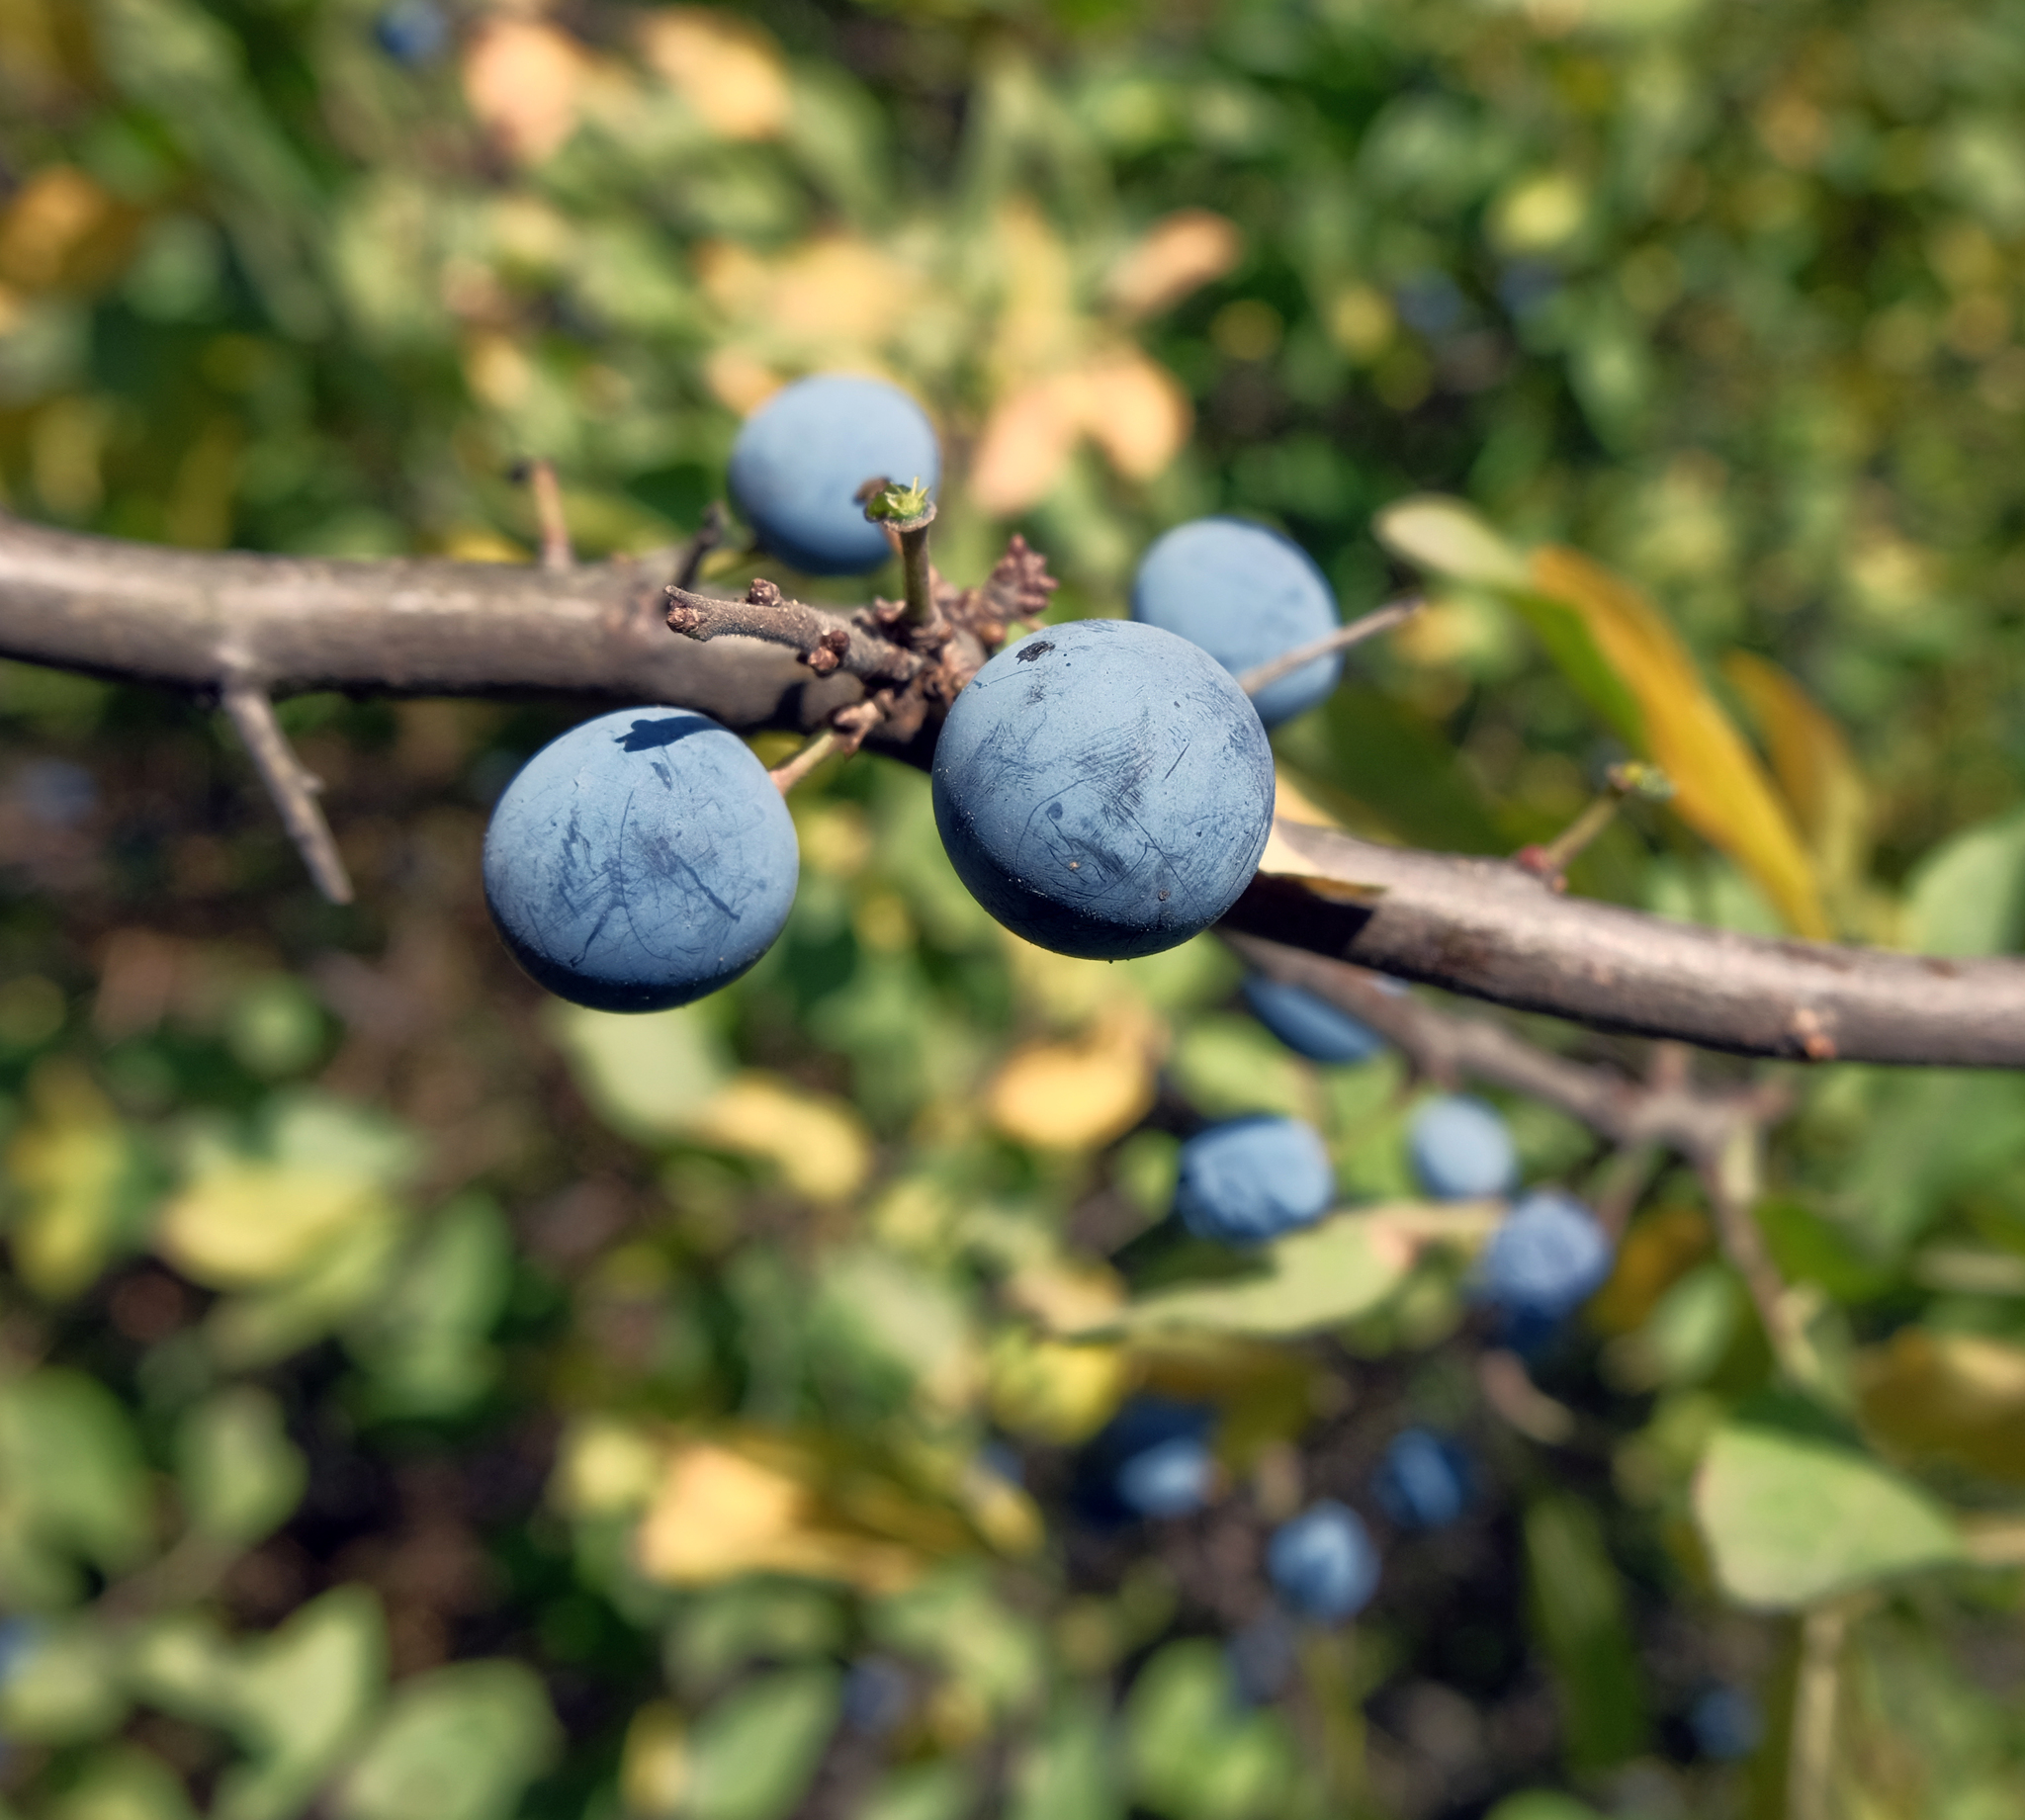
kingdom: Plantae
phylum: Tracheophyta
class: Magnoliopsida
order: Rosales
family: Rosaceae
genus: Prunus
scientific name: Prunus spinosa
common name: Blackthorn
